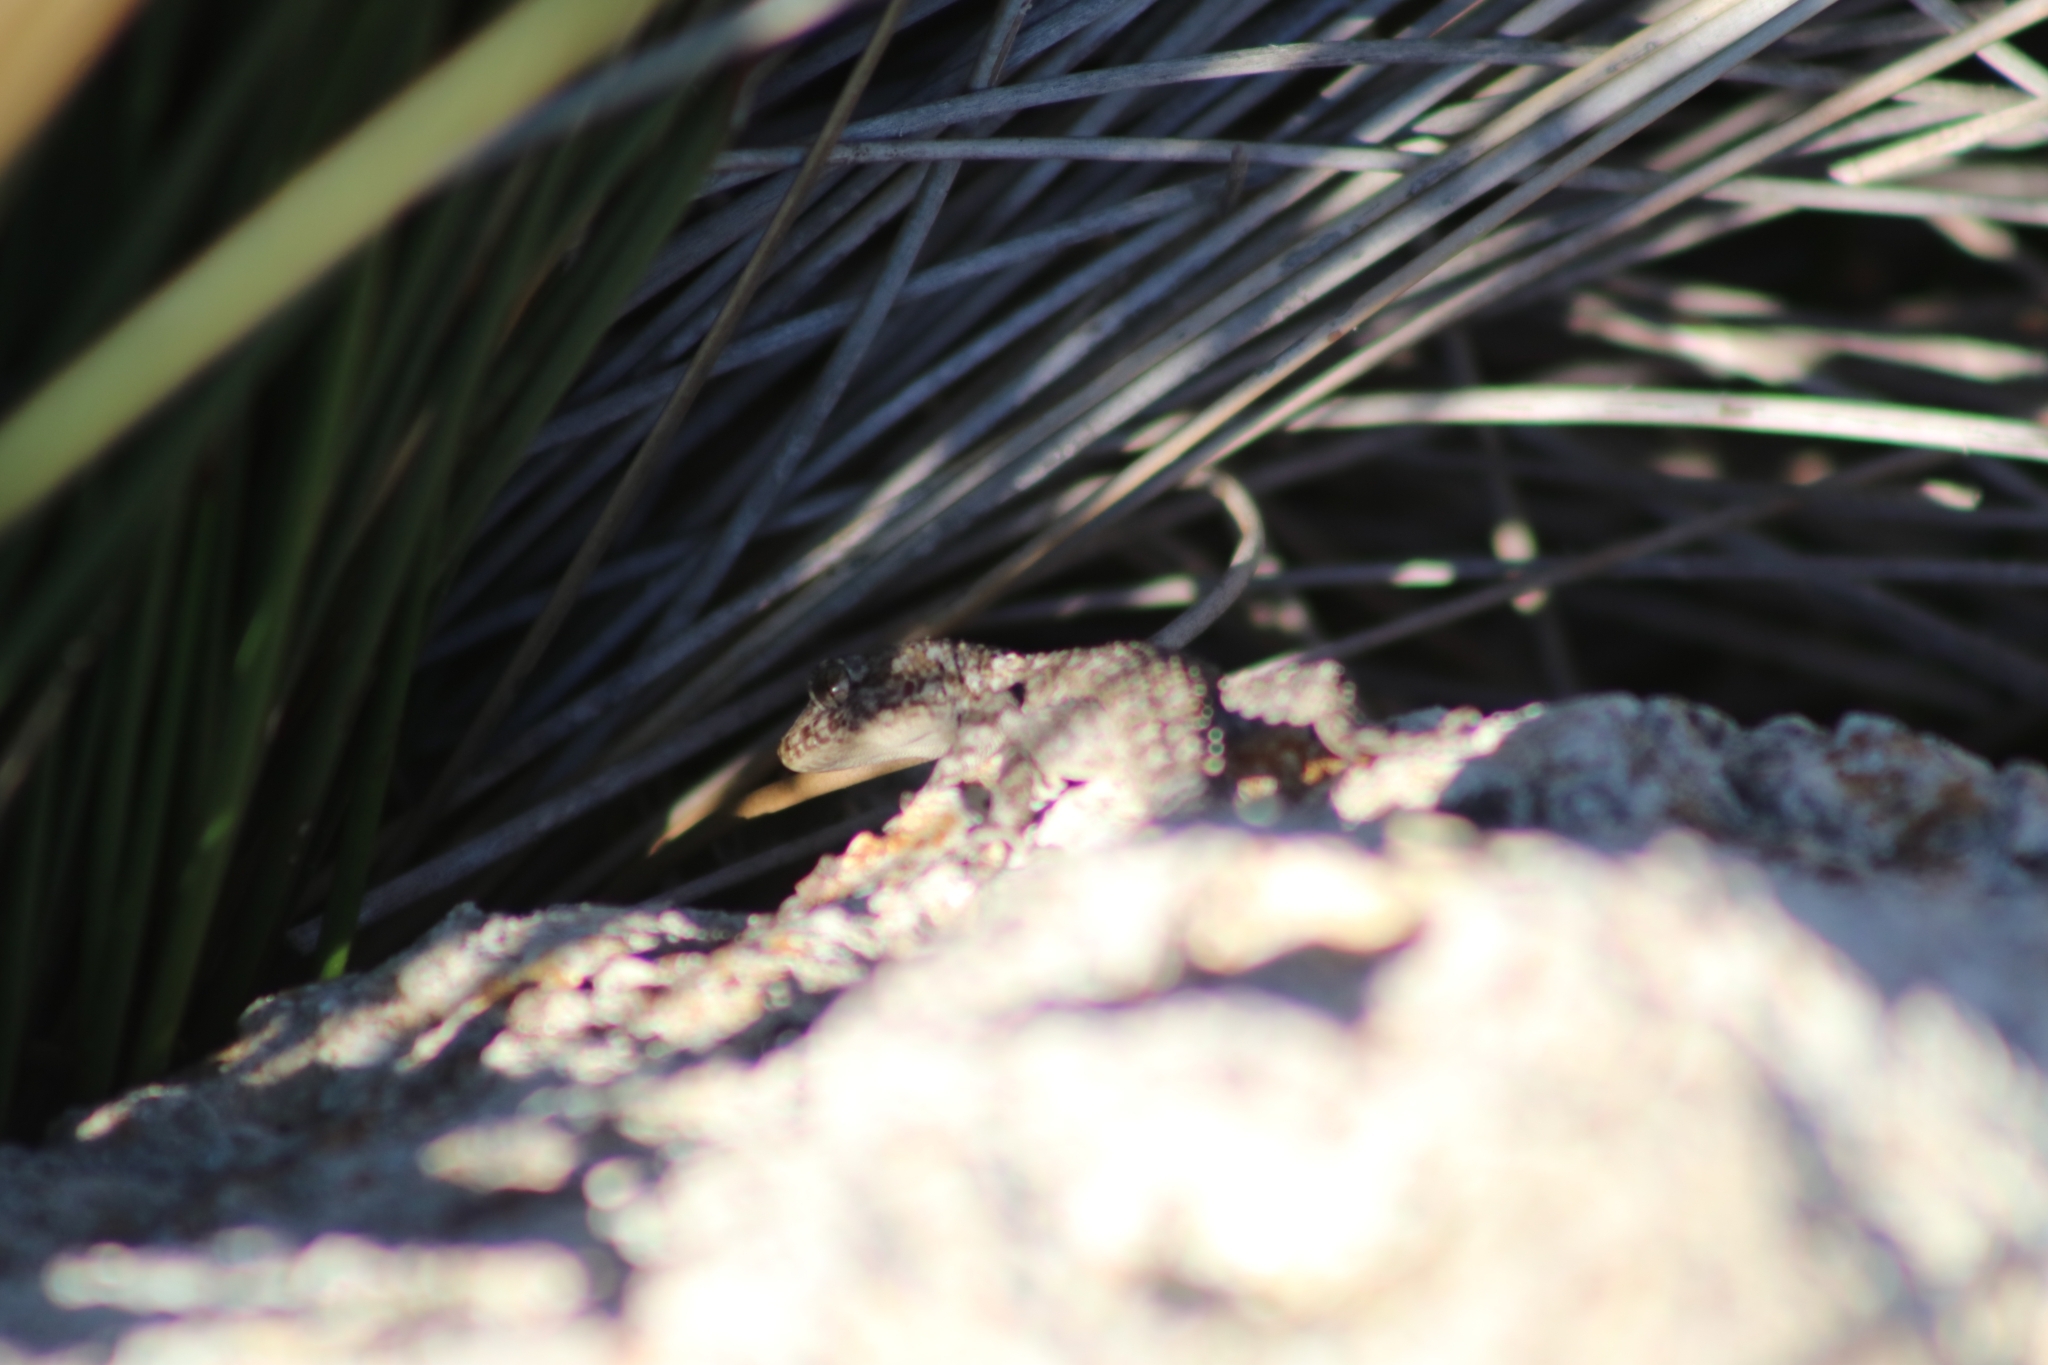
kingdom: Animalia
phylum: Chordata
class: Squamata
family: Gekkonidae
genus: Mediodactylus
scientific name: Mediodactylus kotschyi
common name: Kotschy's gecko
